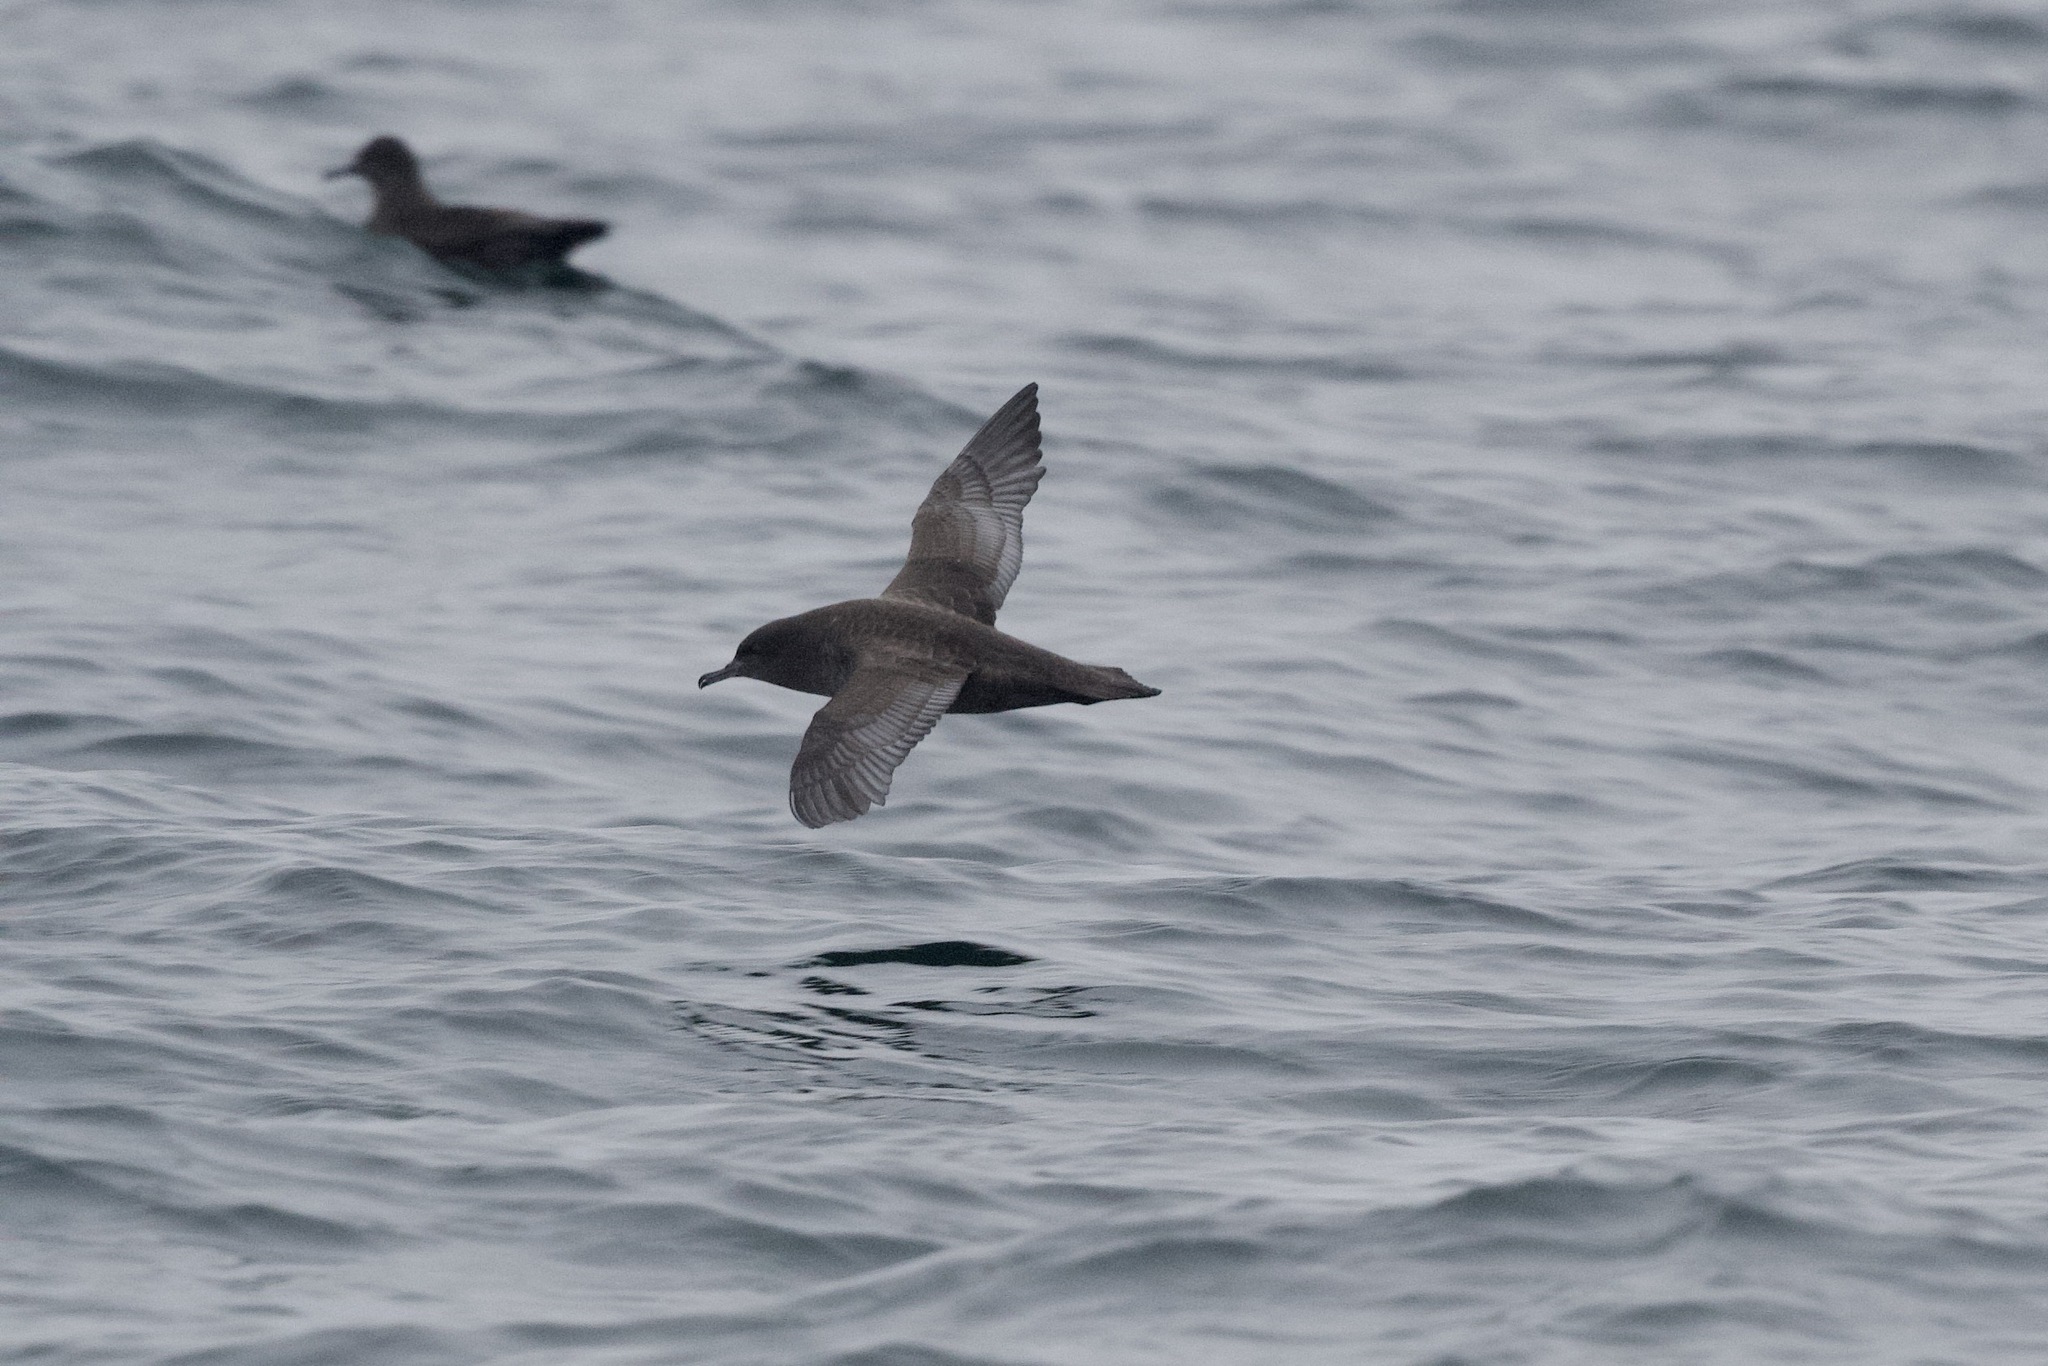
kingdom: Animalia
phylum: Chordata
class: Aves
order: Procellariiformes
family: Procellariidae
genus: Puffinus
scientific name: Puffinus griseus
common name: Sooty shearwater
